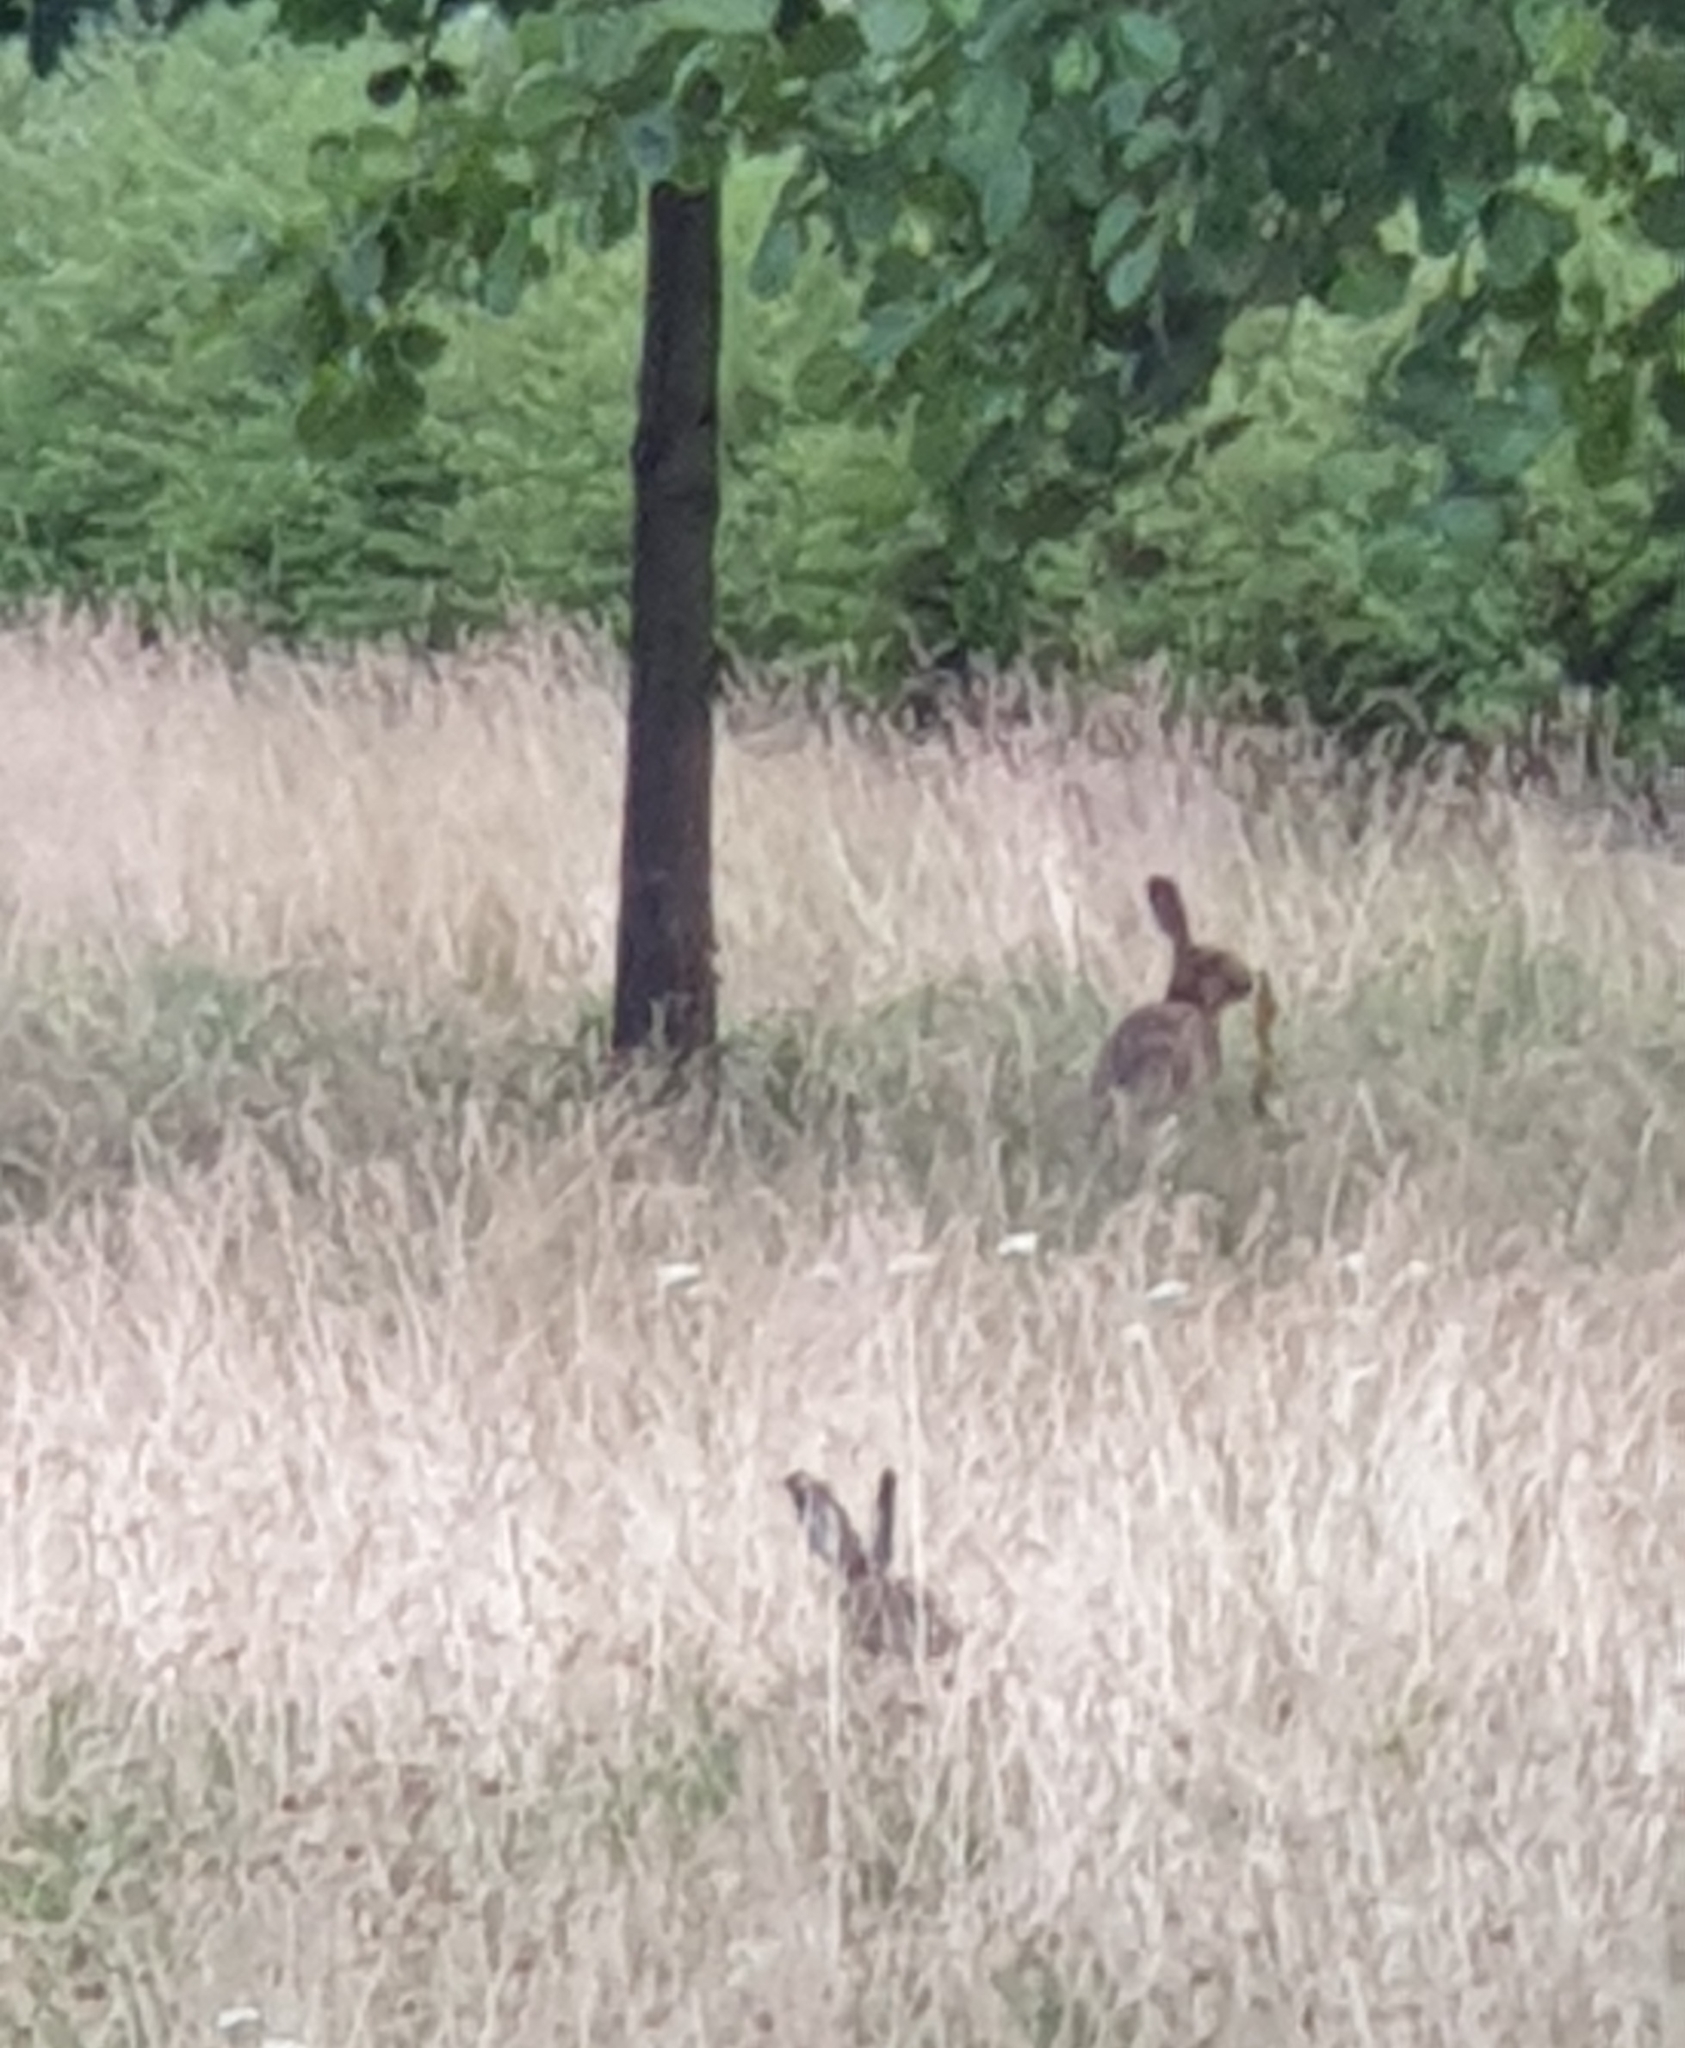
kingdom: Animalia
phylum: Chordata
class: Mammalia
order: Lagomorpha
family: Leporidae
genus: Lepus
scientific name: Lepus europaeus
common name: European hare
